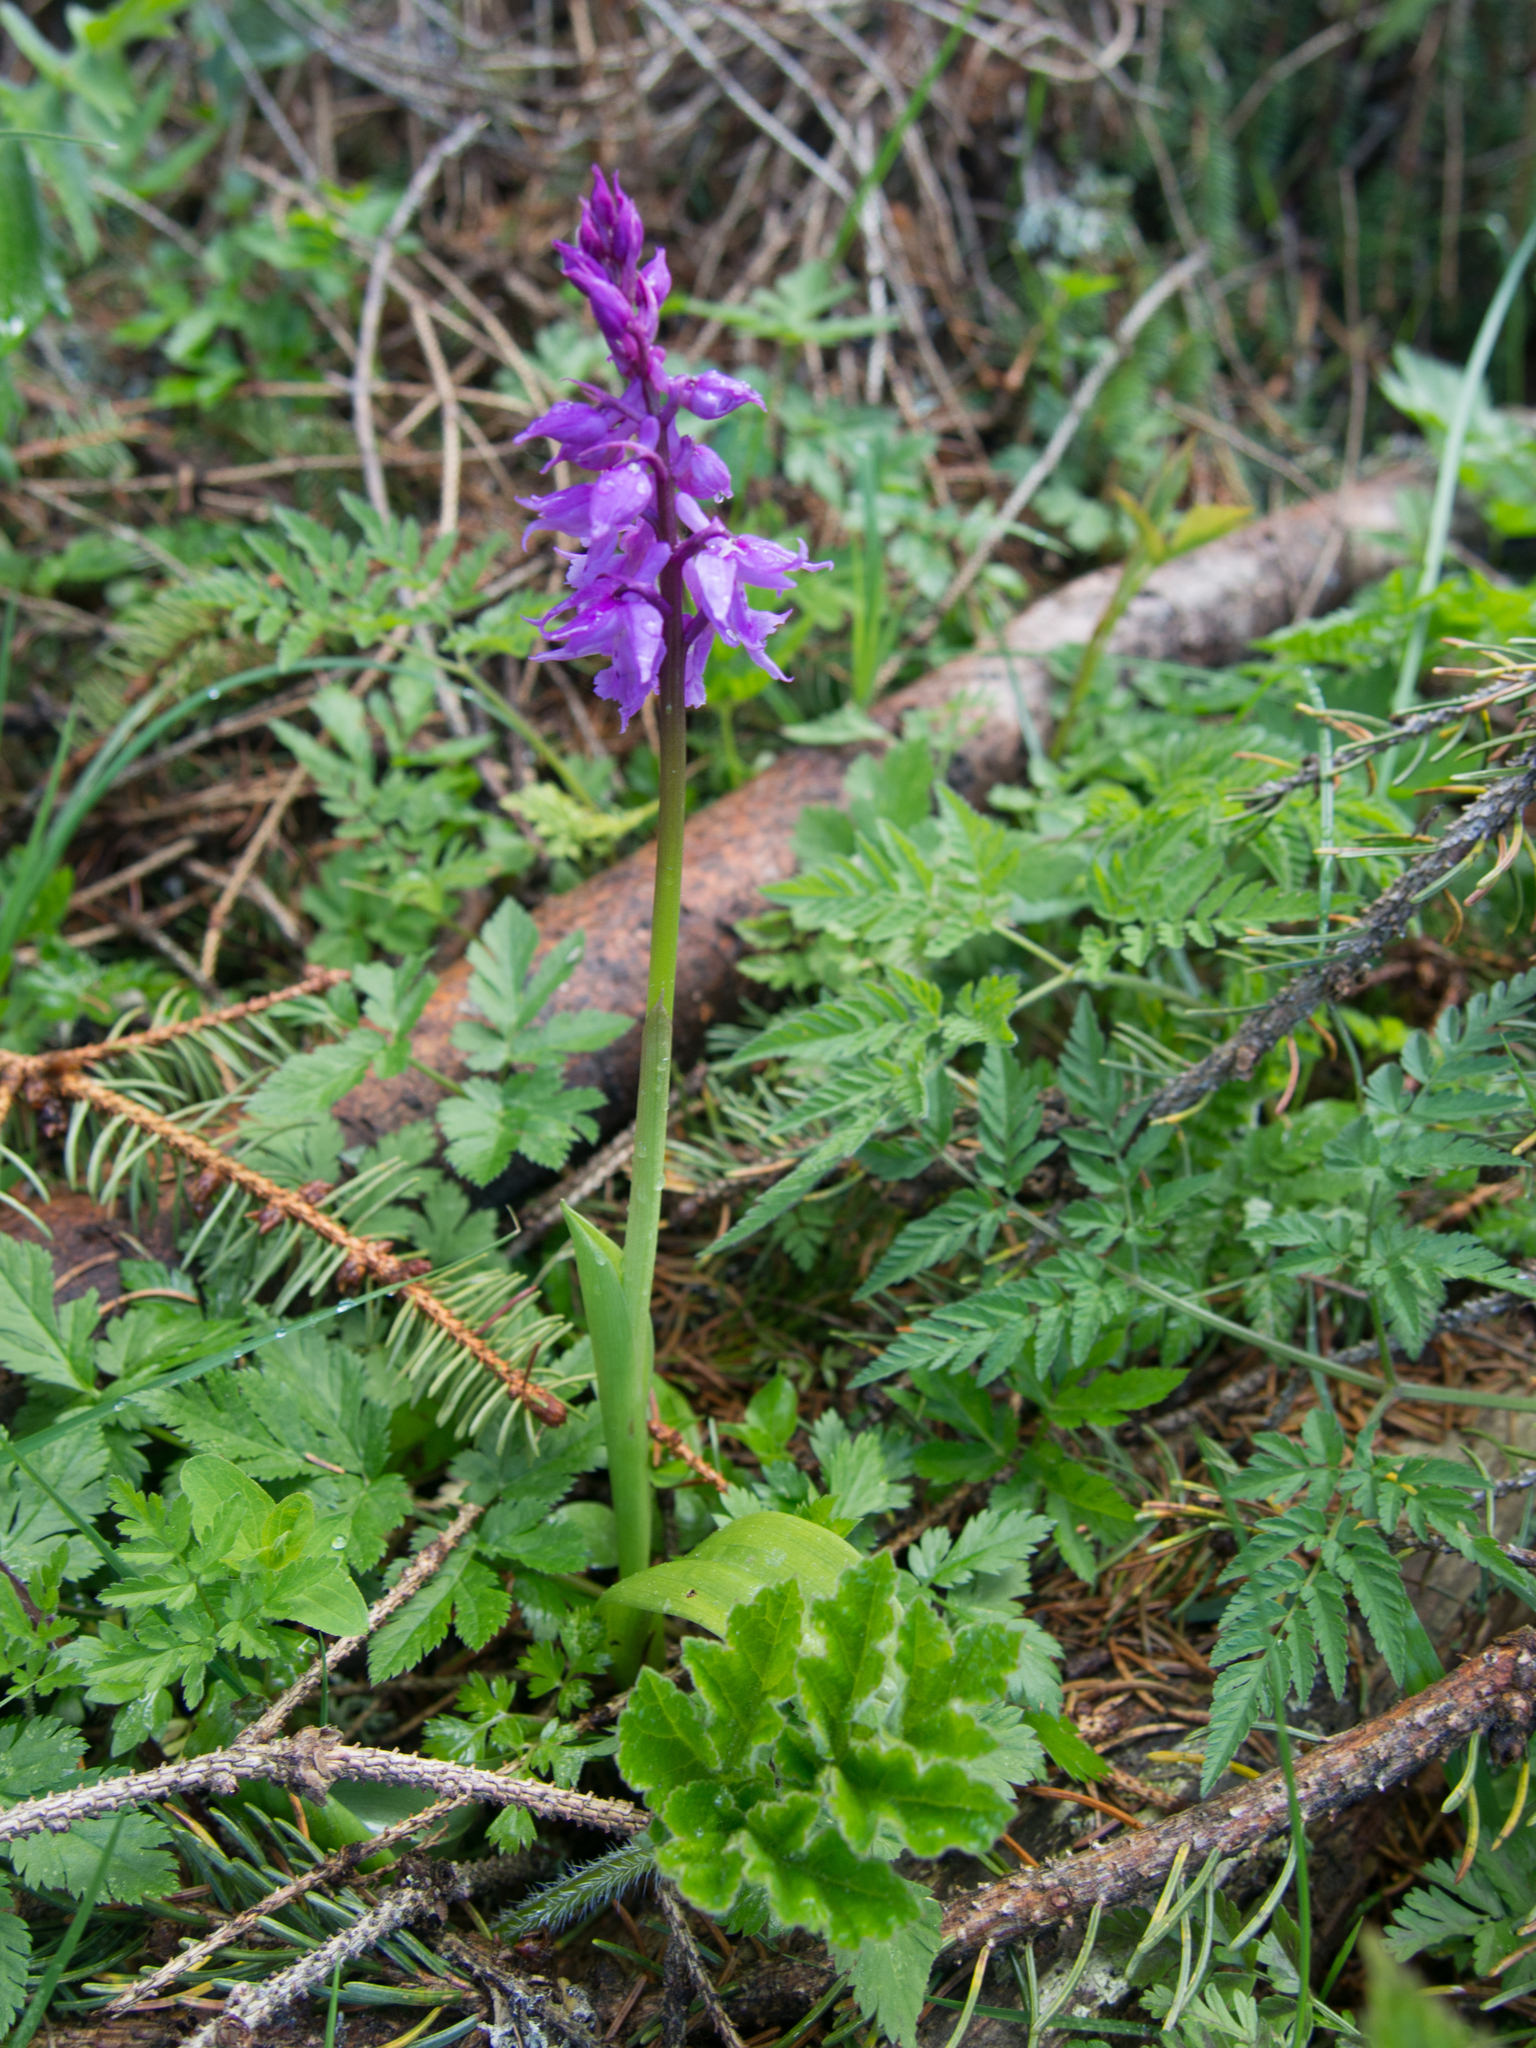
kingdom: Plantae
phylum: Tracheophyta
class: Liliopsida
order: Asparagales
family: Orchidaceae
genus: Orchis
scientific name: Orchis mascula
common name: Early-purple orchid
